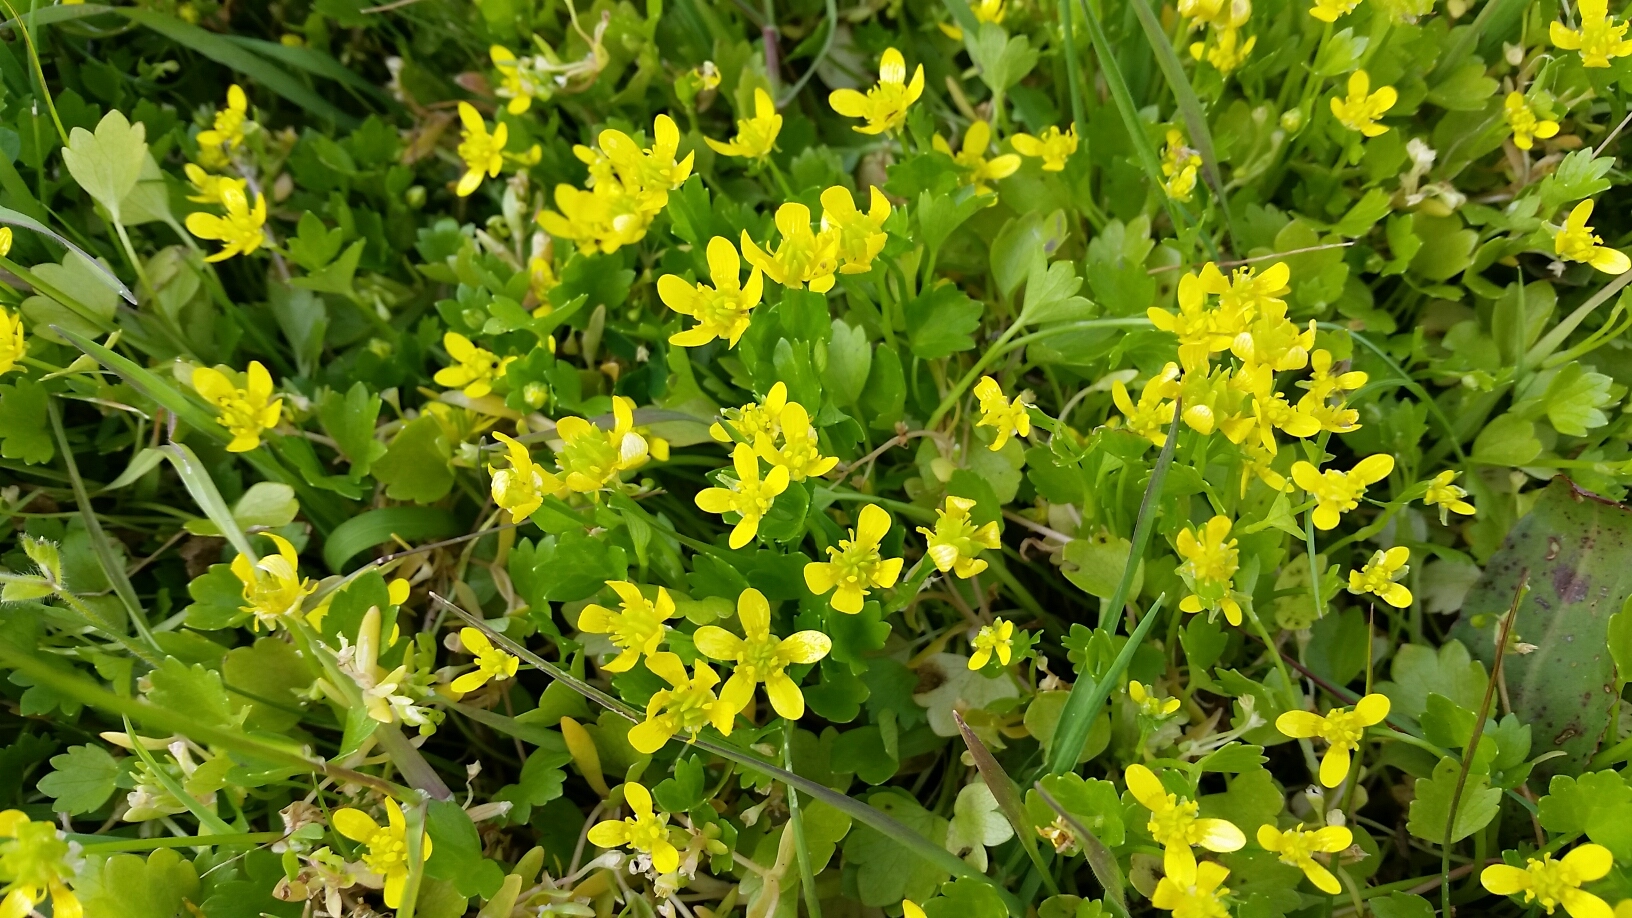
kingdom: Plantae
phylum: Tracheophyta
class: Magnoliopsida
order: Ranunculales
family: Ranunculaceae
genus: Ranunculus
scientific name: Ranunculus muricatus
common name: Rough-fruited buttercup
